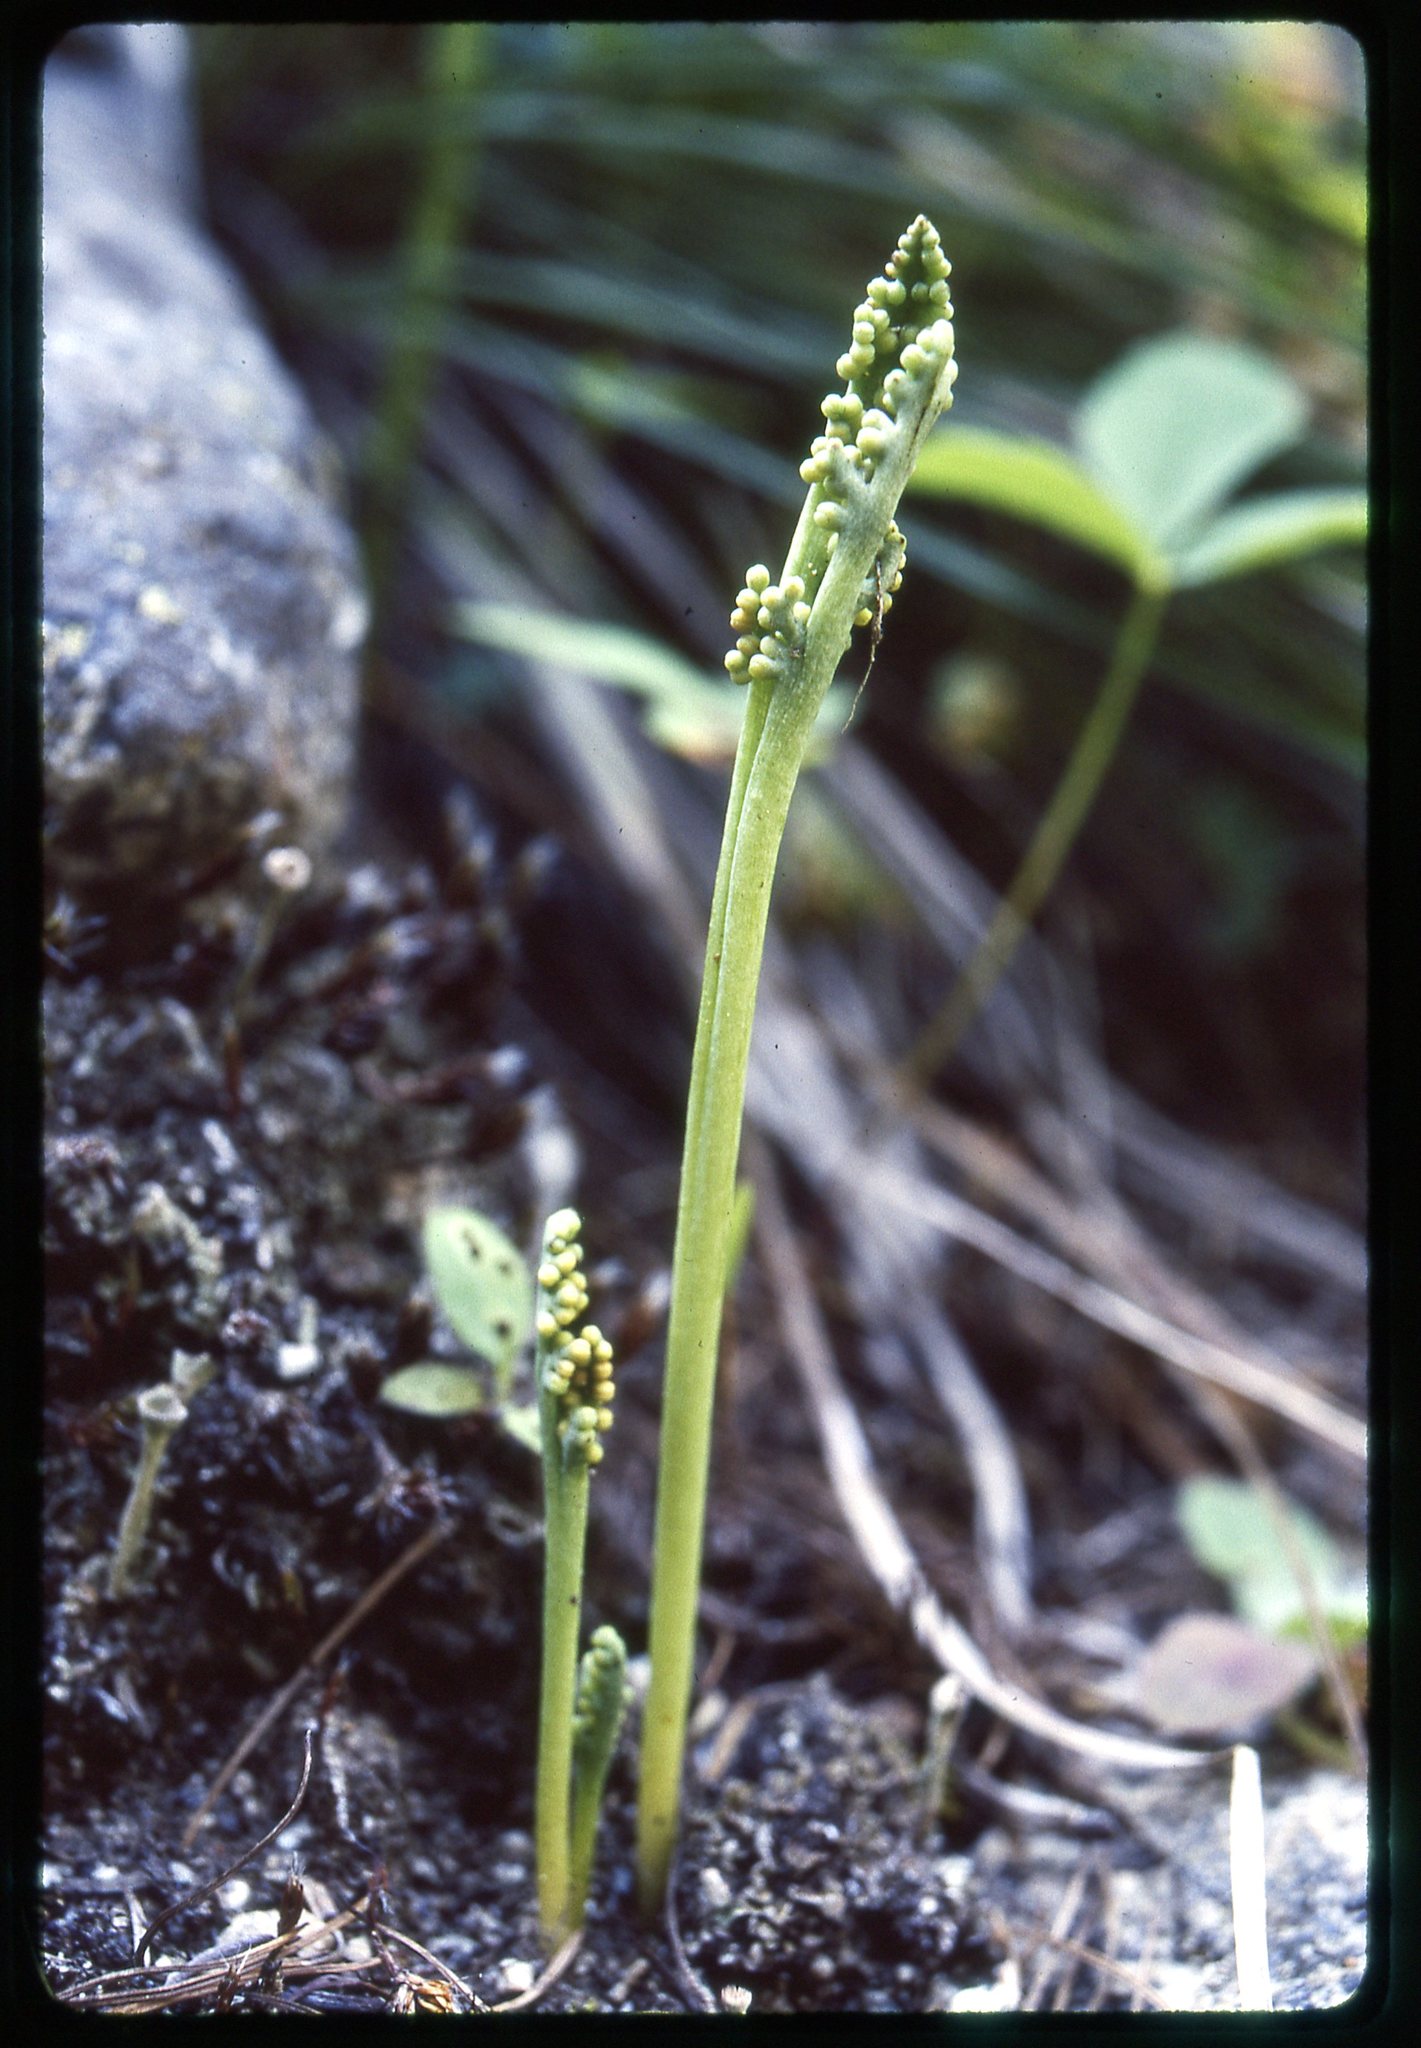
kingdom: Plantae
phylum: Tracheophyta
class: Polypodiopsida
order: Ophioglossales
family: Ophioglossaceae
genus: Botrychium
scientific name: Botrychium paradoxum
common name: Paradox moonwort
